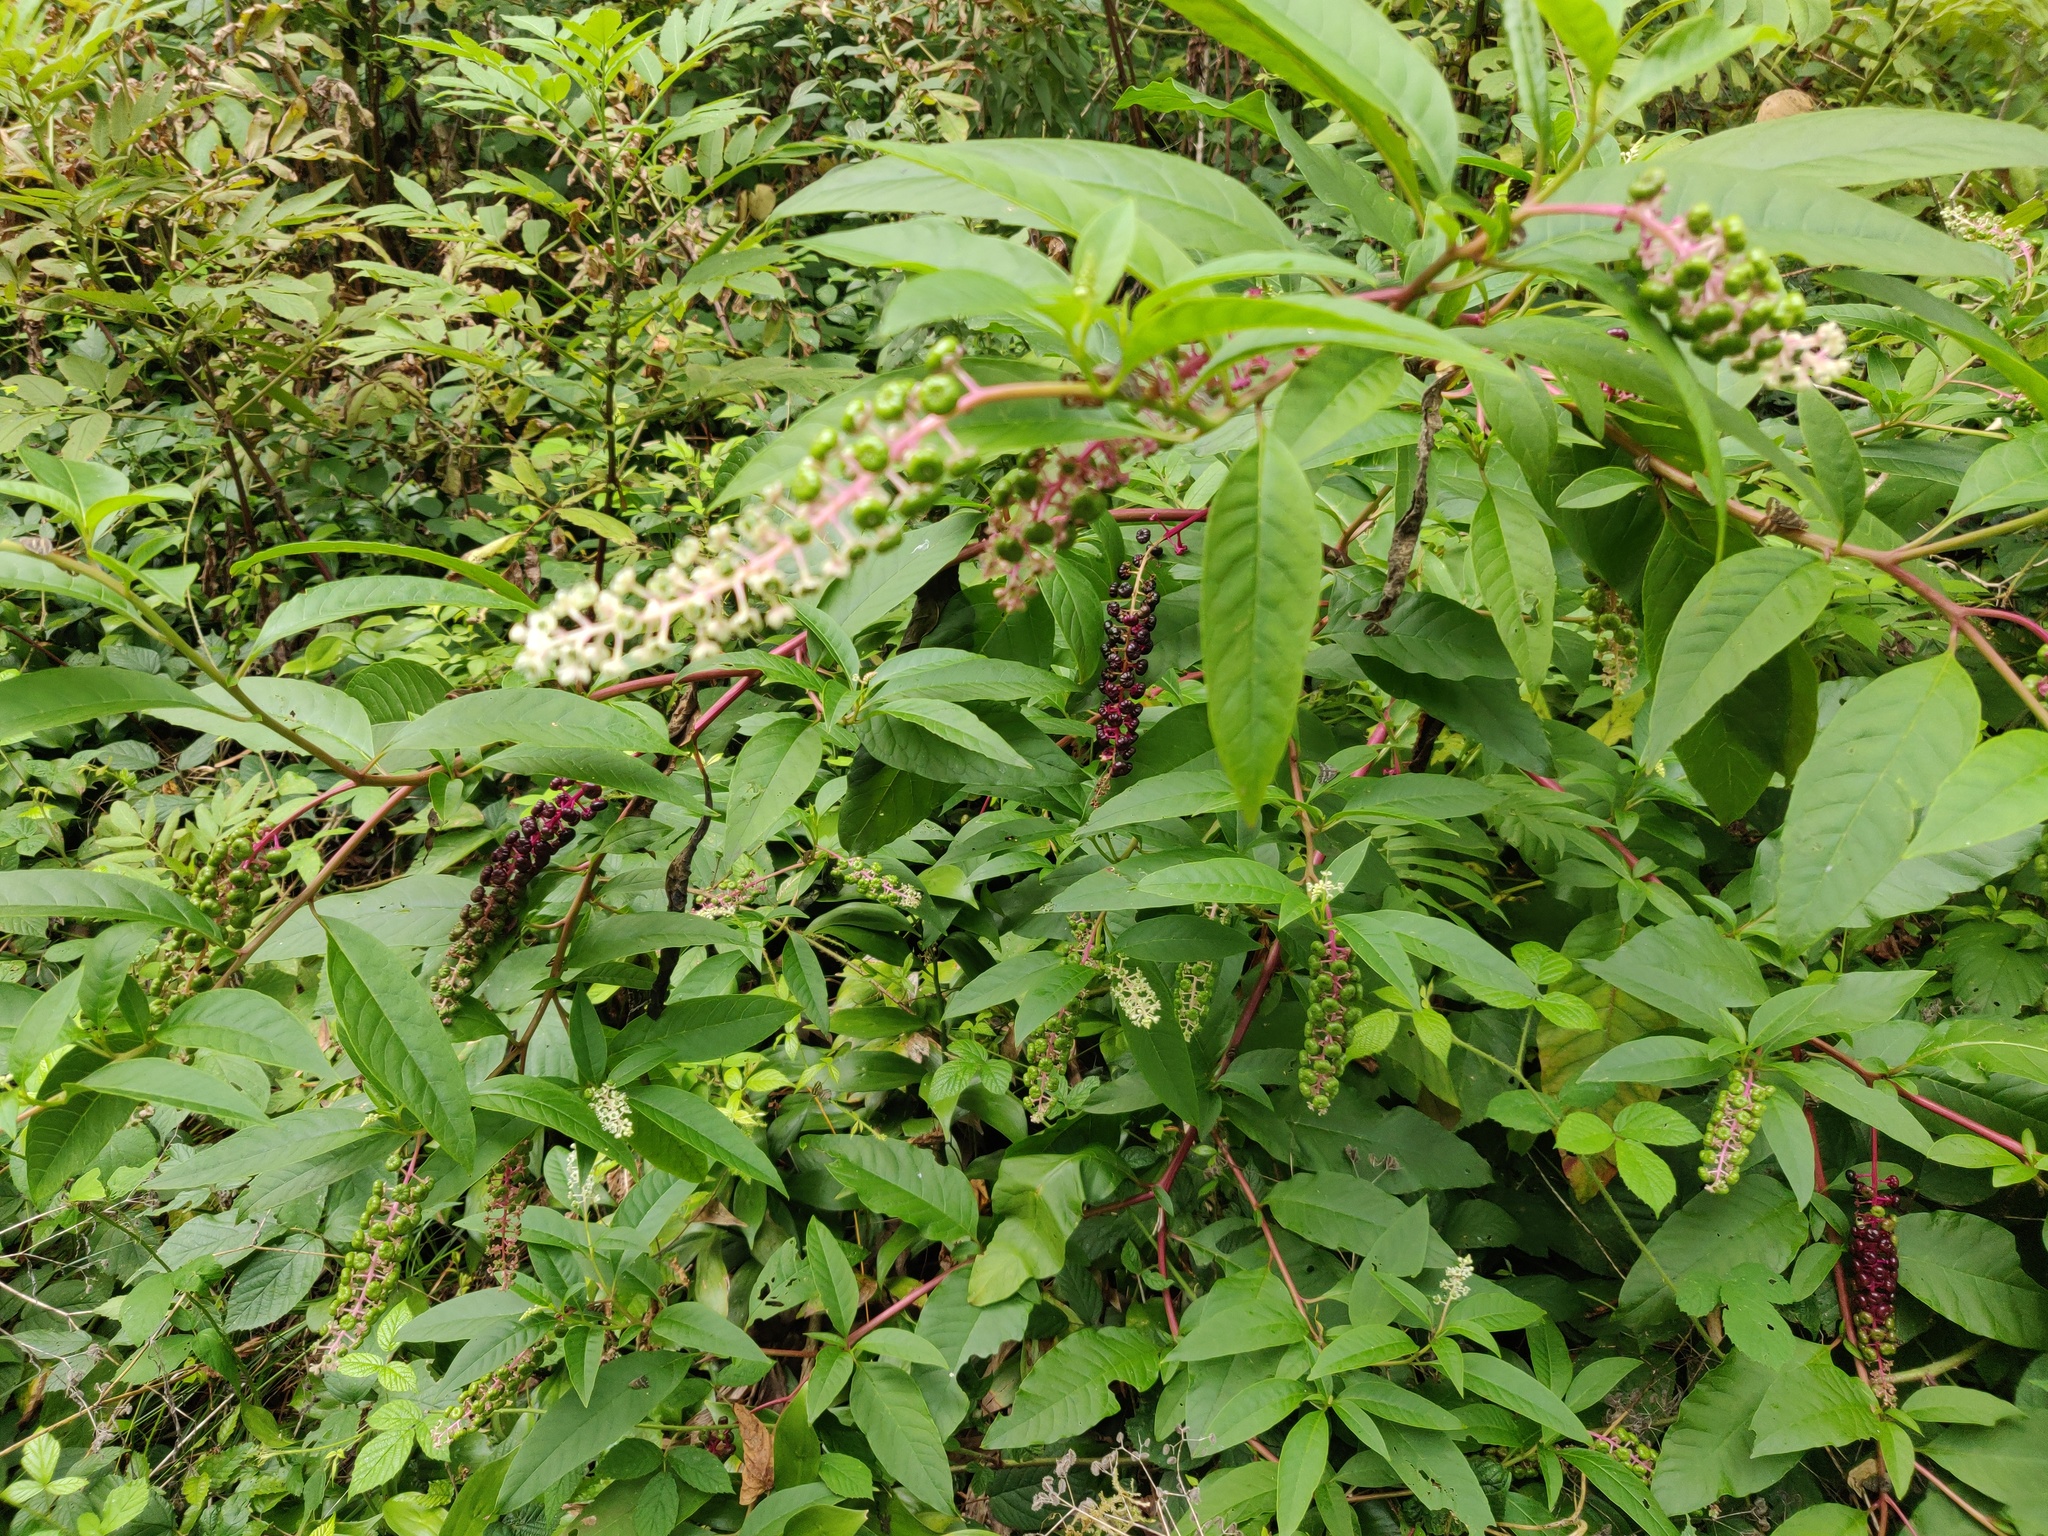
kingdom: Plantae
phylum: Tracheophyta
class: Magnoliopsida
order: Caryophyllales
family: Phytolaccaceae
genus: Phytolacca
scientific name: Phytolacca americana
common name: American pokeweed
